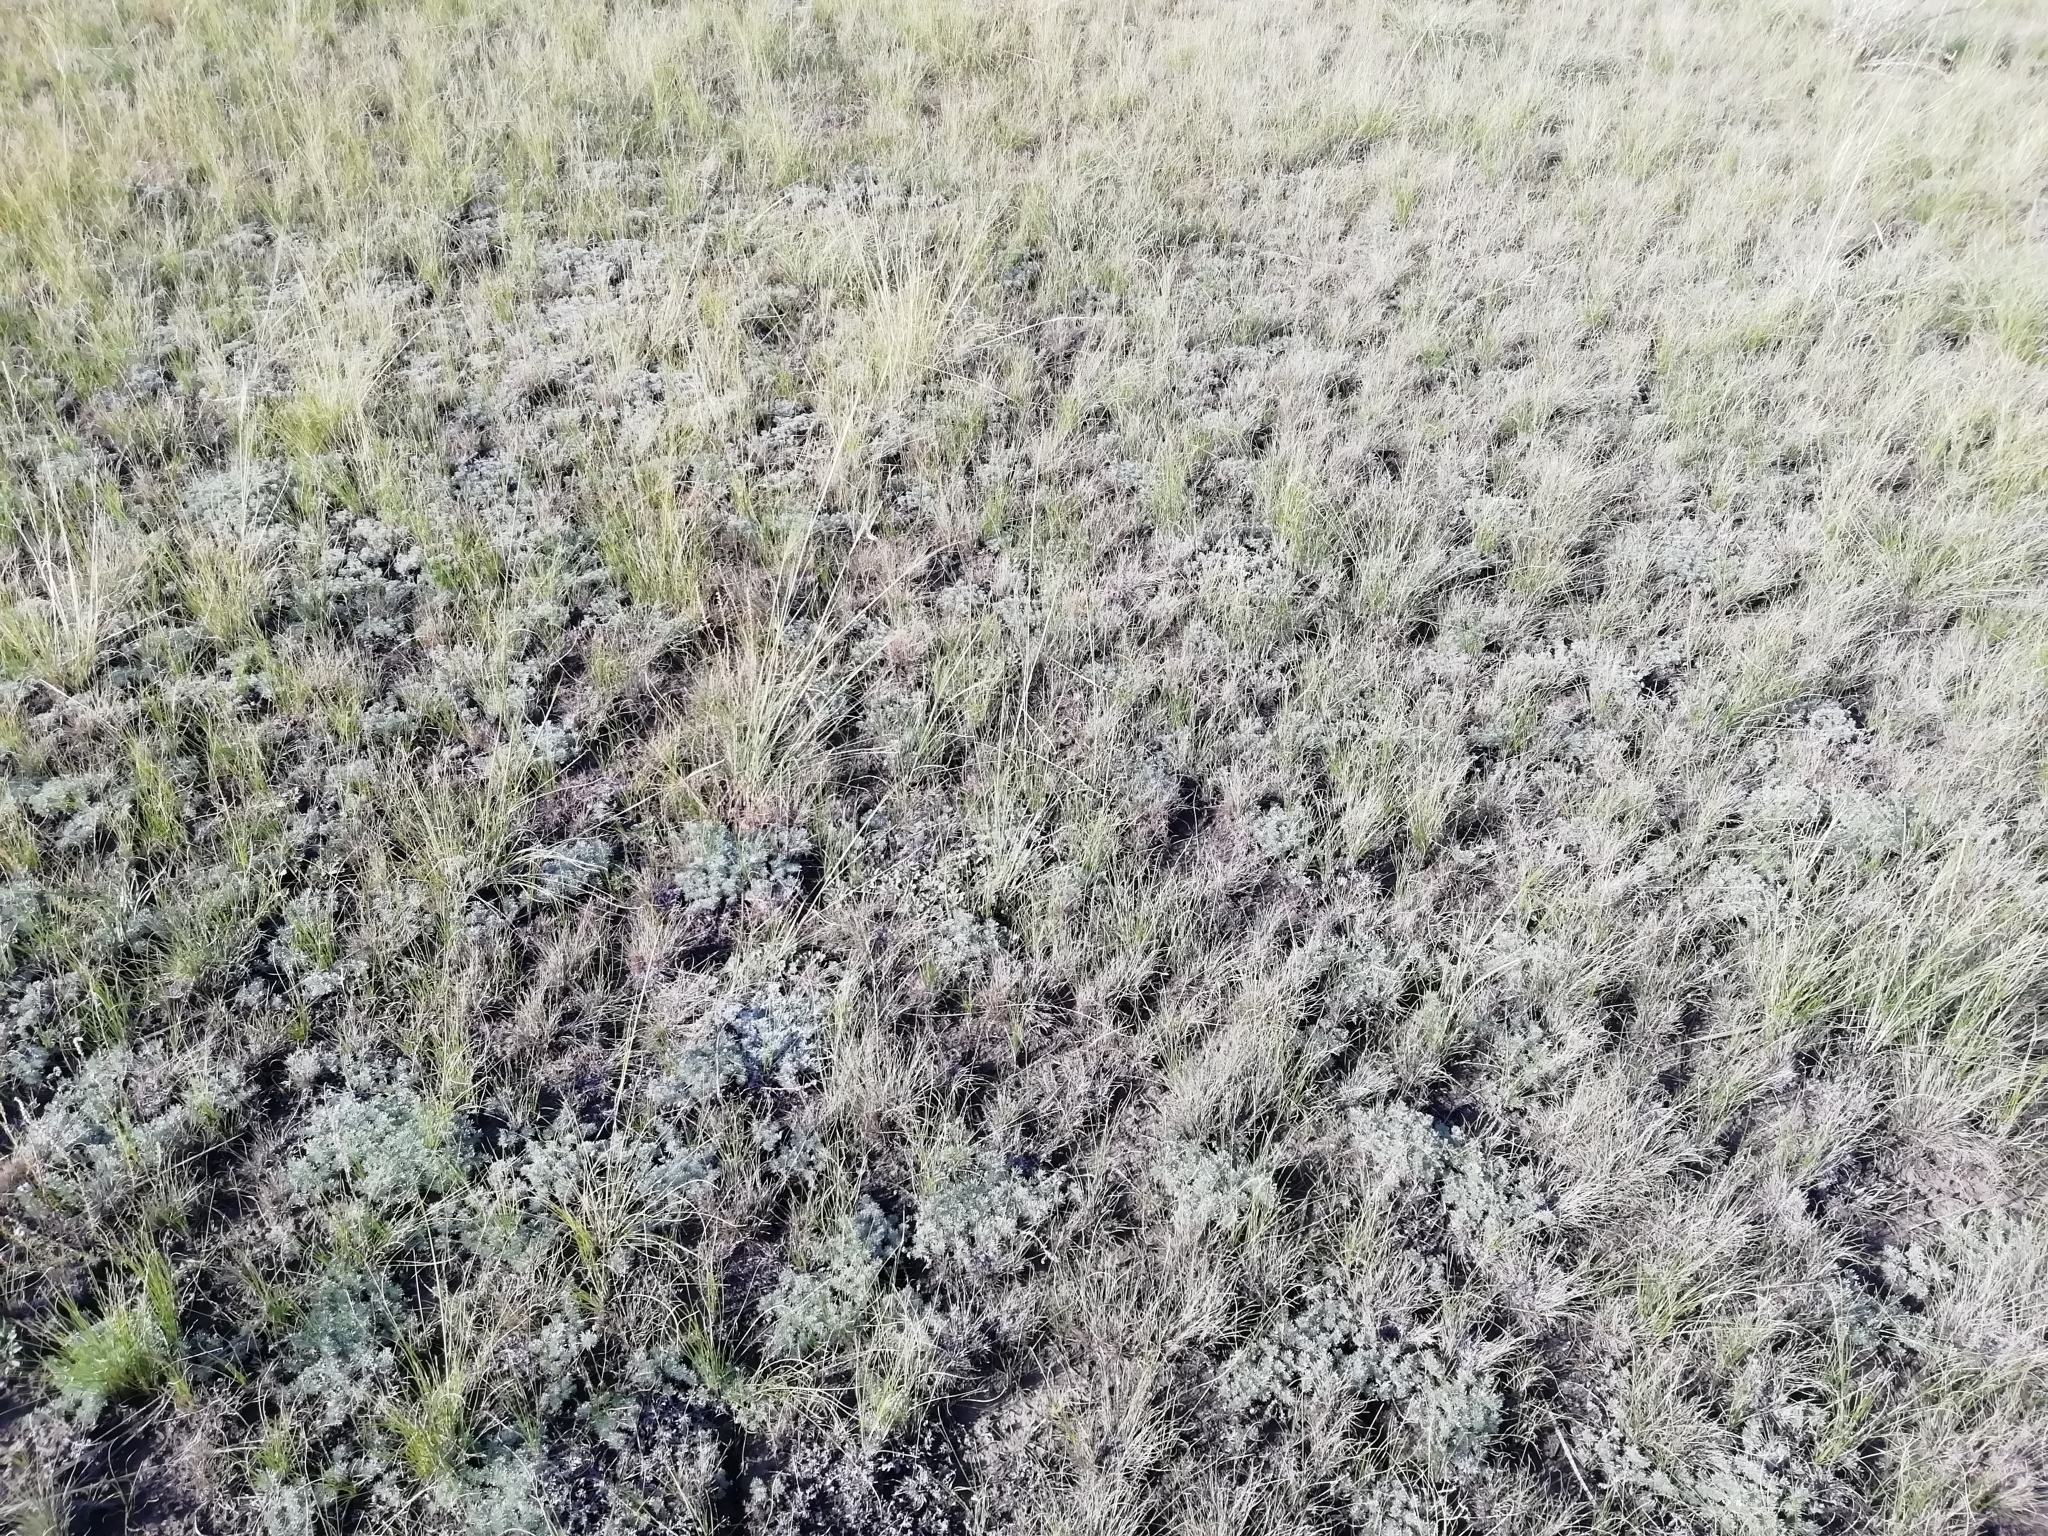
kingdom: Animalia
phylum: Arthropoda
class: Insecta
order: Orthoptera
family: Acrididae
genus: Celes
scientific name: Celes skalozubovi
